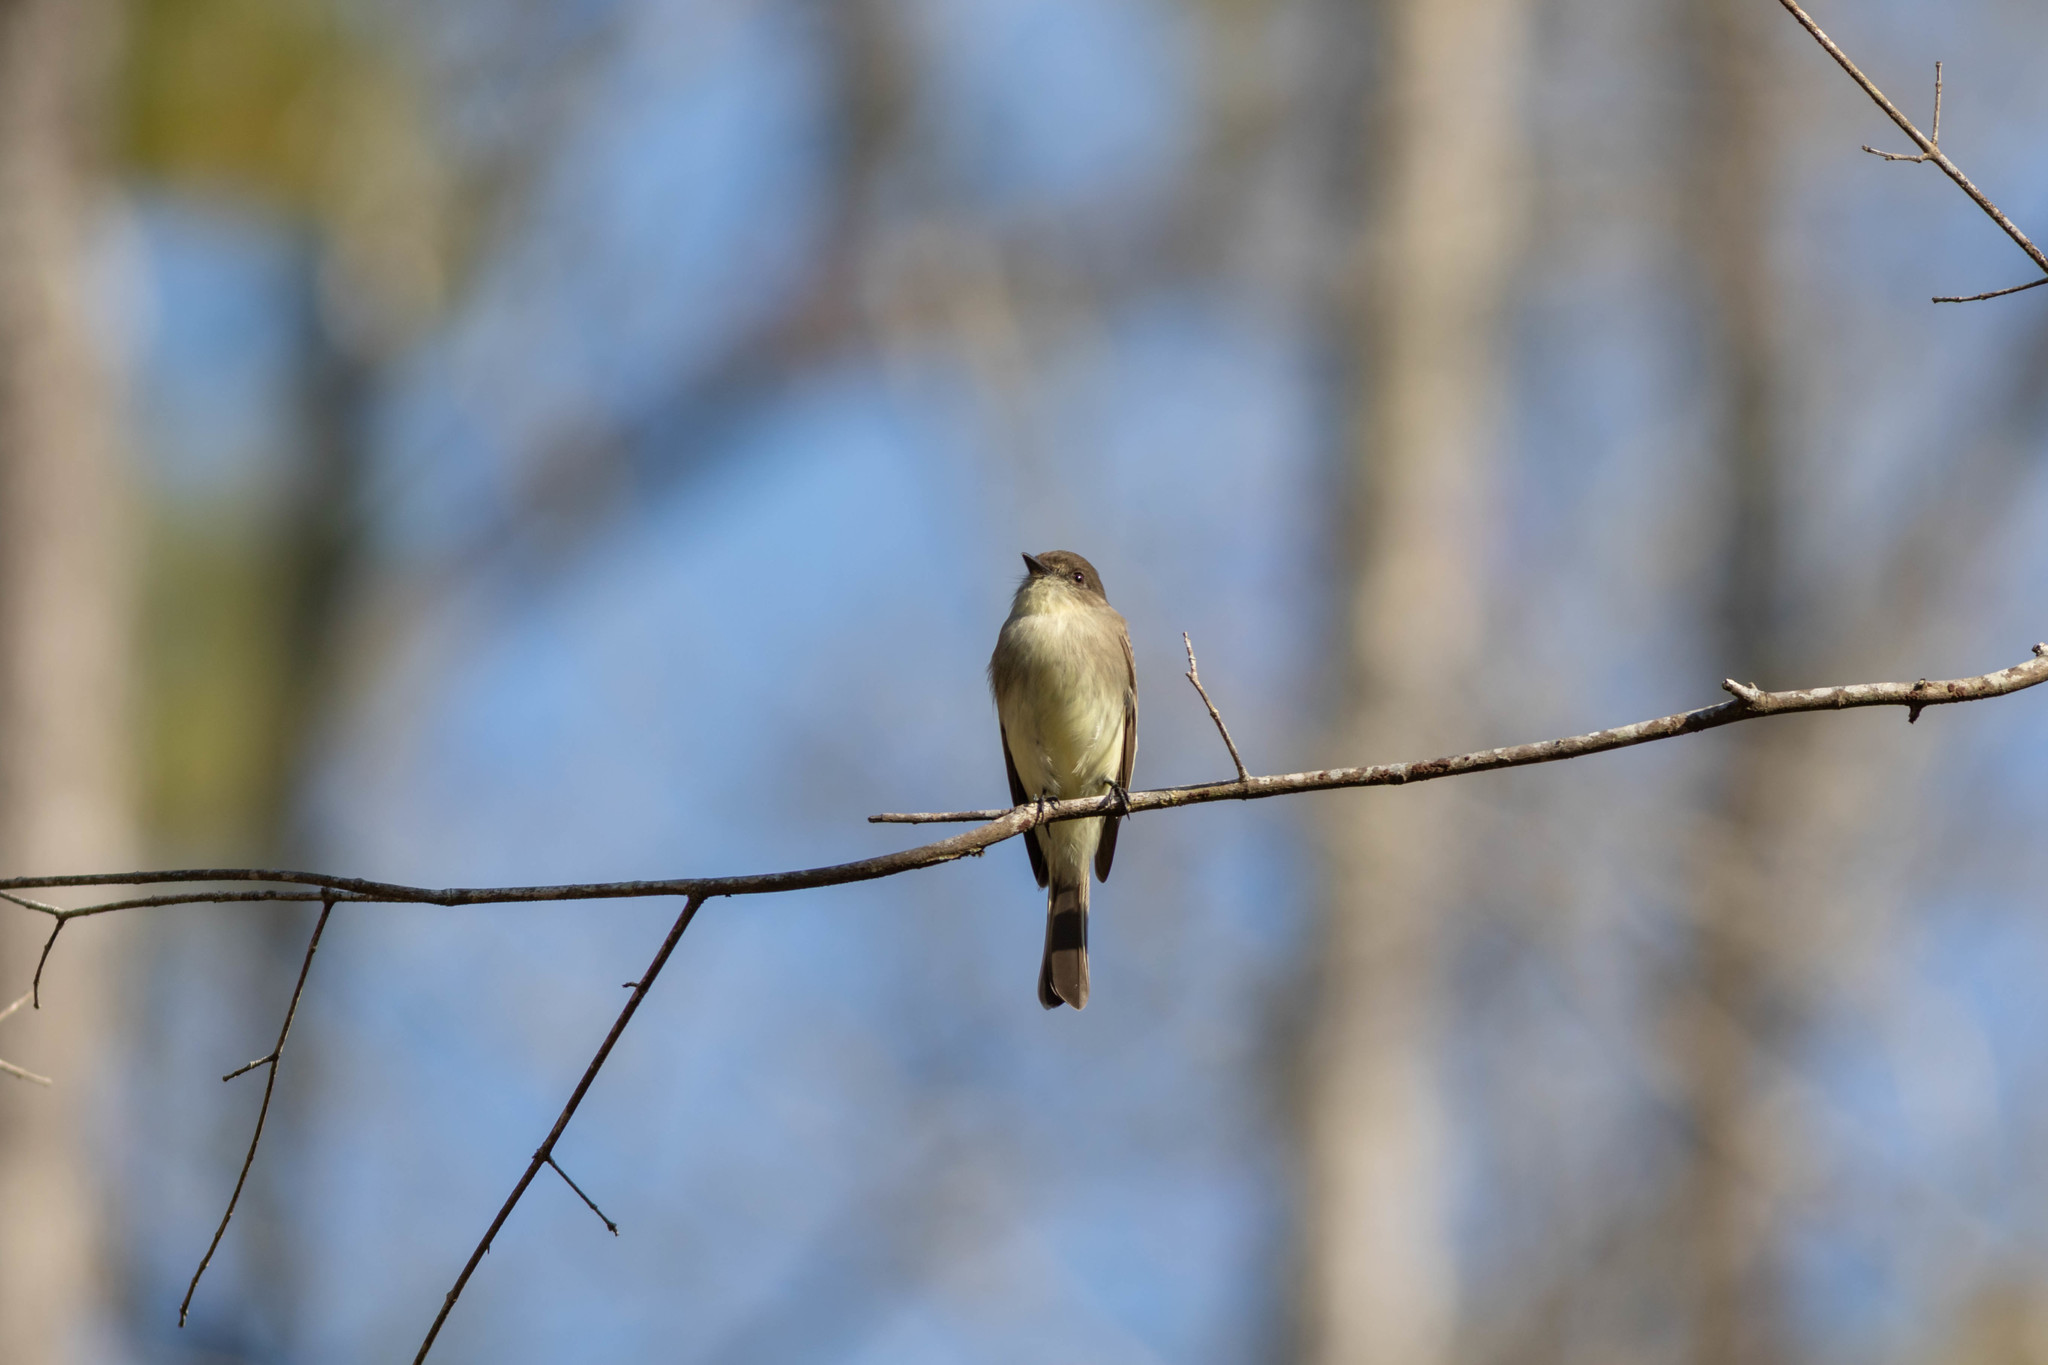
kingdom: Animalia
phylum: Chordata
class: Aves
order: Passeriformes
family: Tyrannidae
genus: Sayornis
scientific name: Sayornis phoebe
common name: Eastern phoebe
